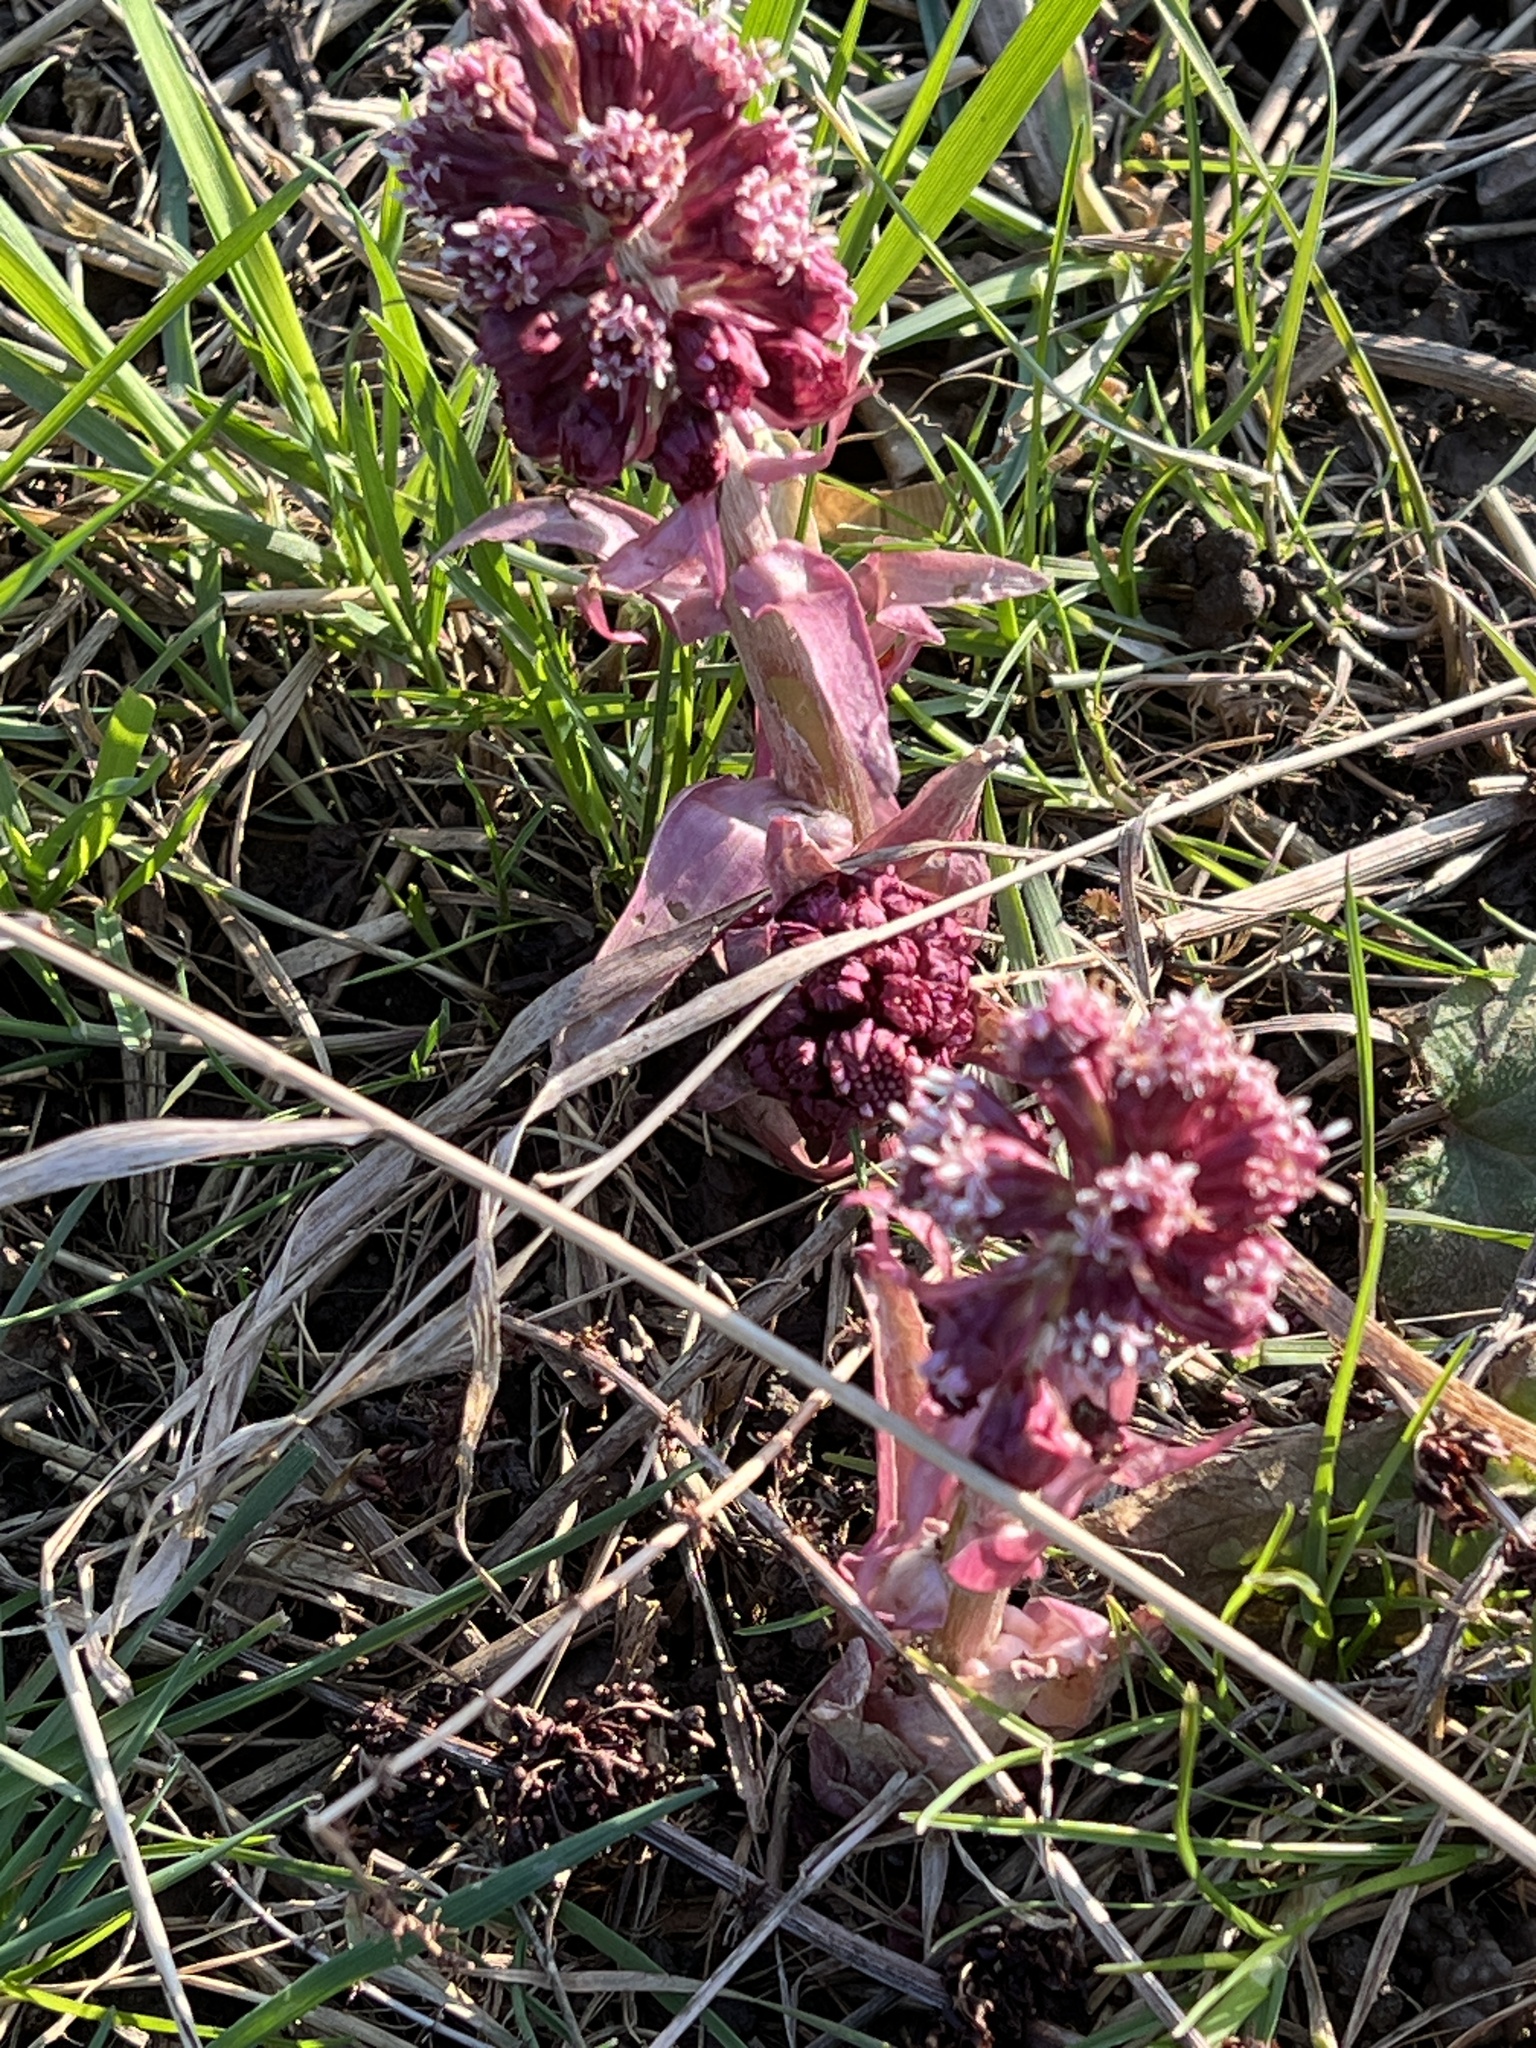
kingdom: Plantae
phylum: Tracheophyta
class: Magnoliopsida
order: Asterales
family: Asteraceae
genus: Petasites
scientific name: Petasites hybridus
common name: Butterbur
